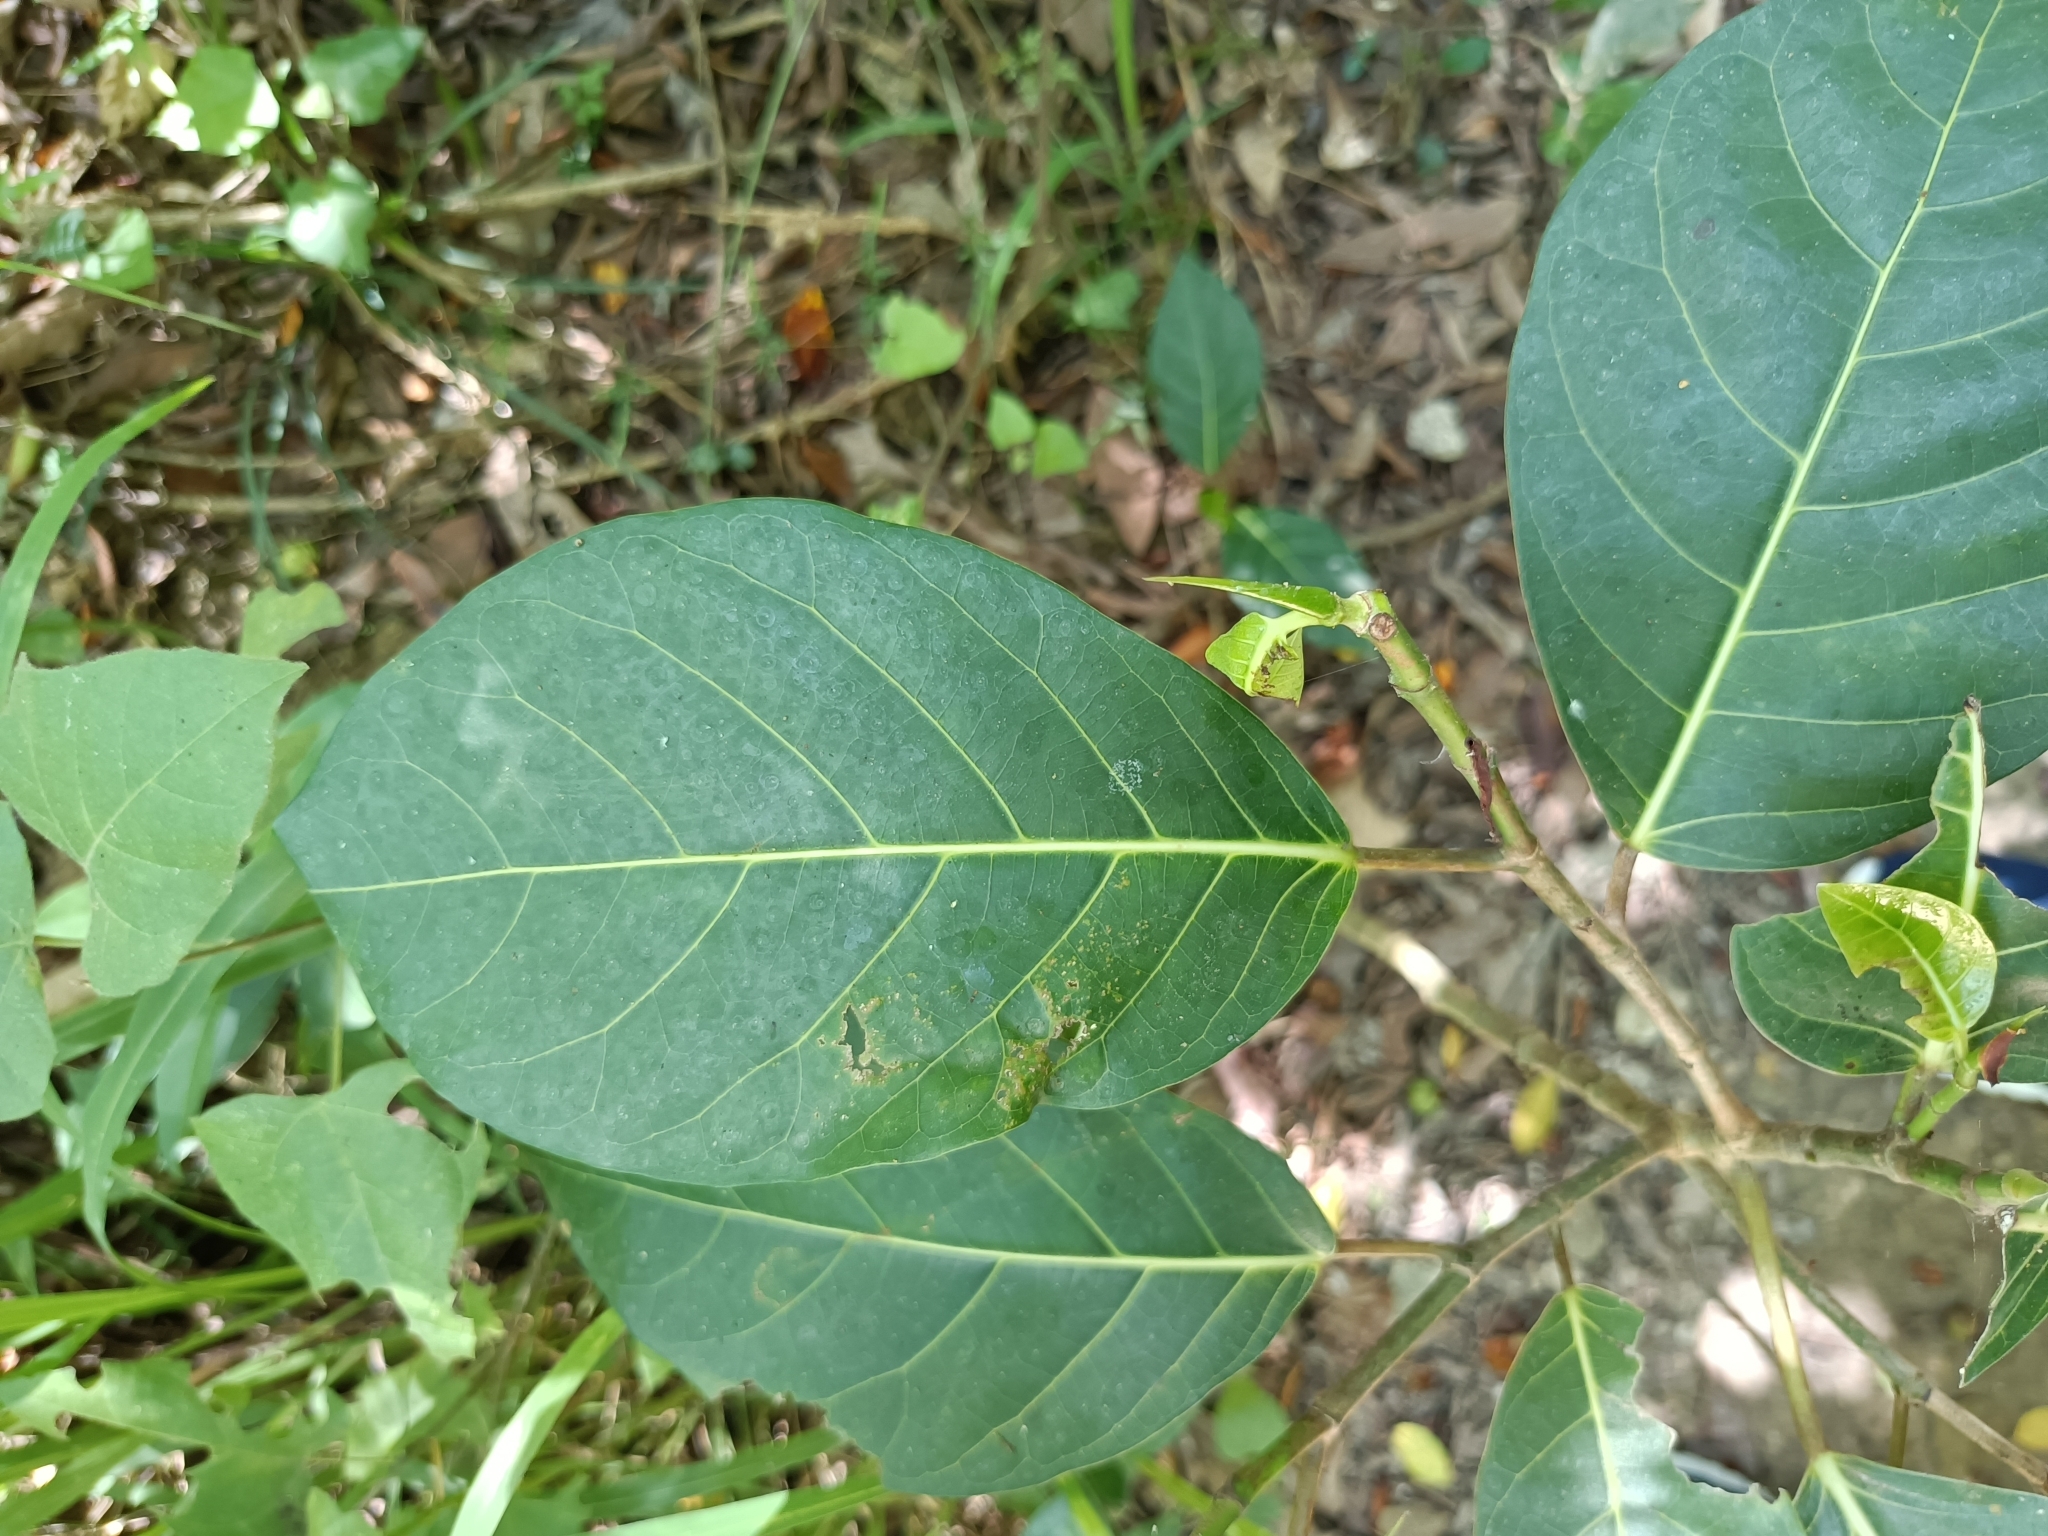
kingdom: Plantae
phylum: Tracheophyta
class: Magnoliopsida
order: Rosales
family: Moraceae
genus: Ficus
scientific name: Ficus septica
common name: Septic fig
